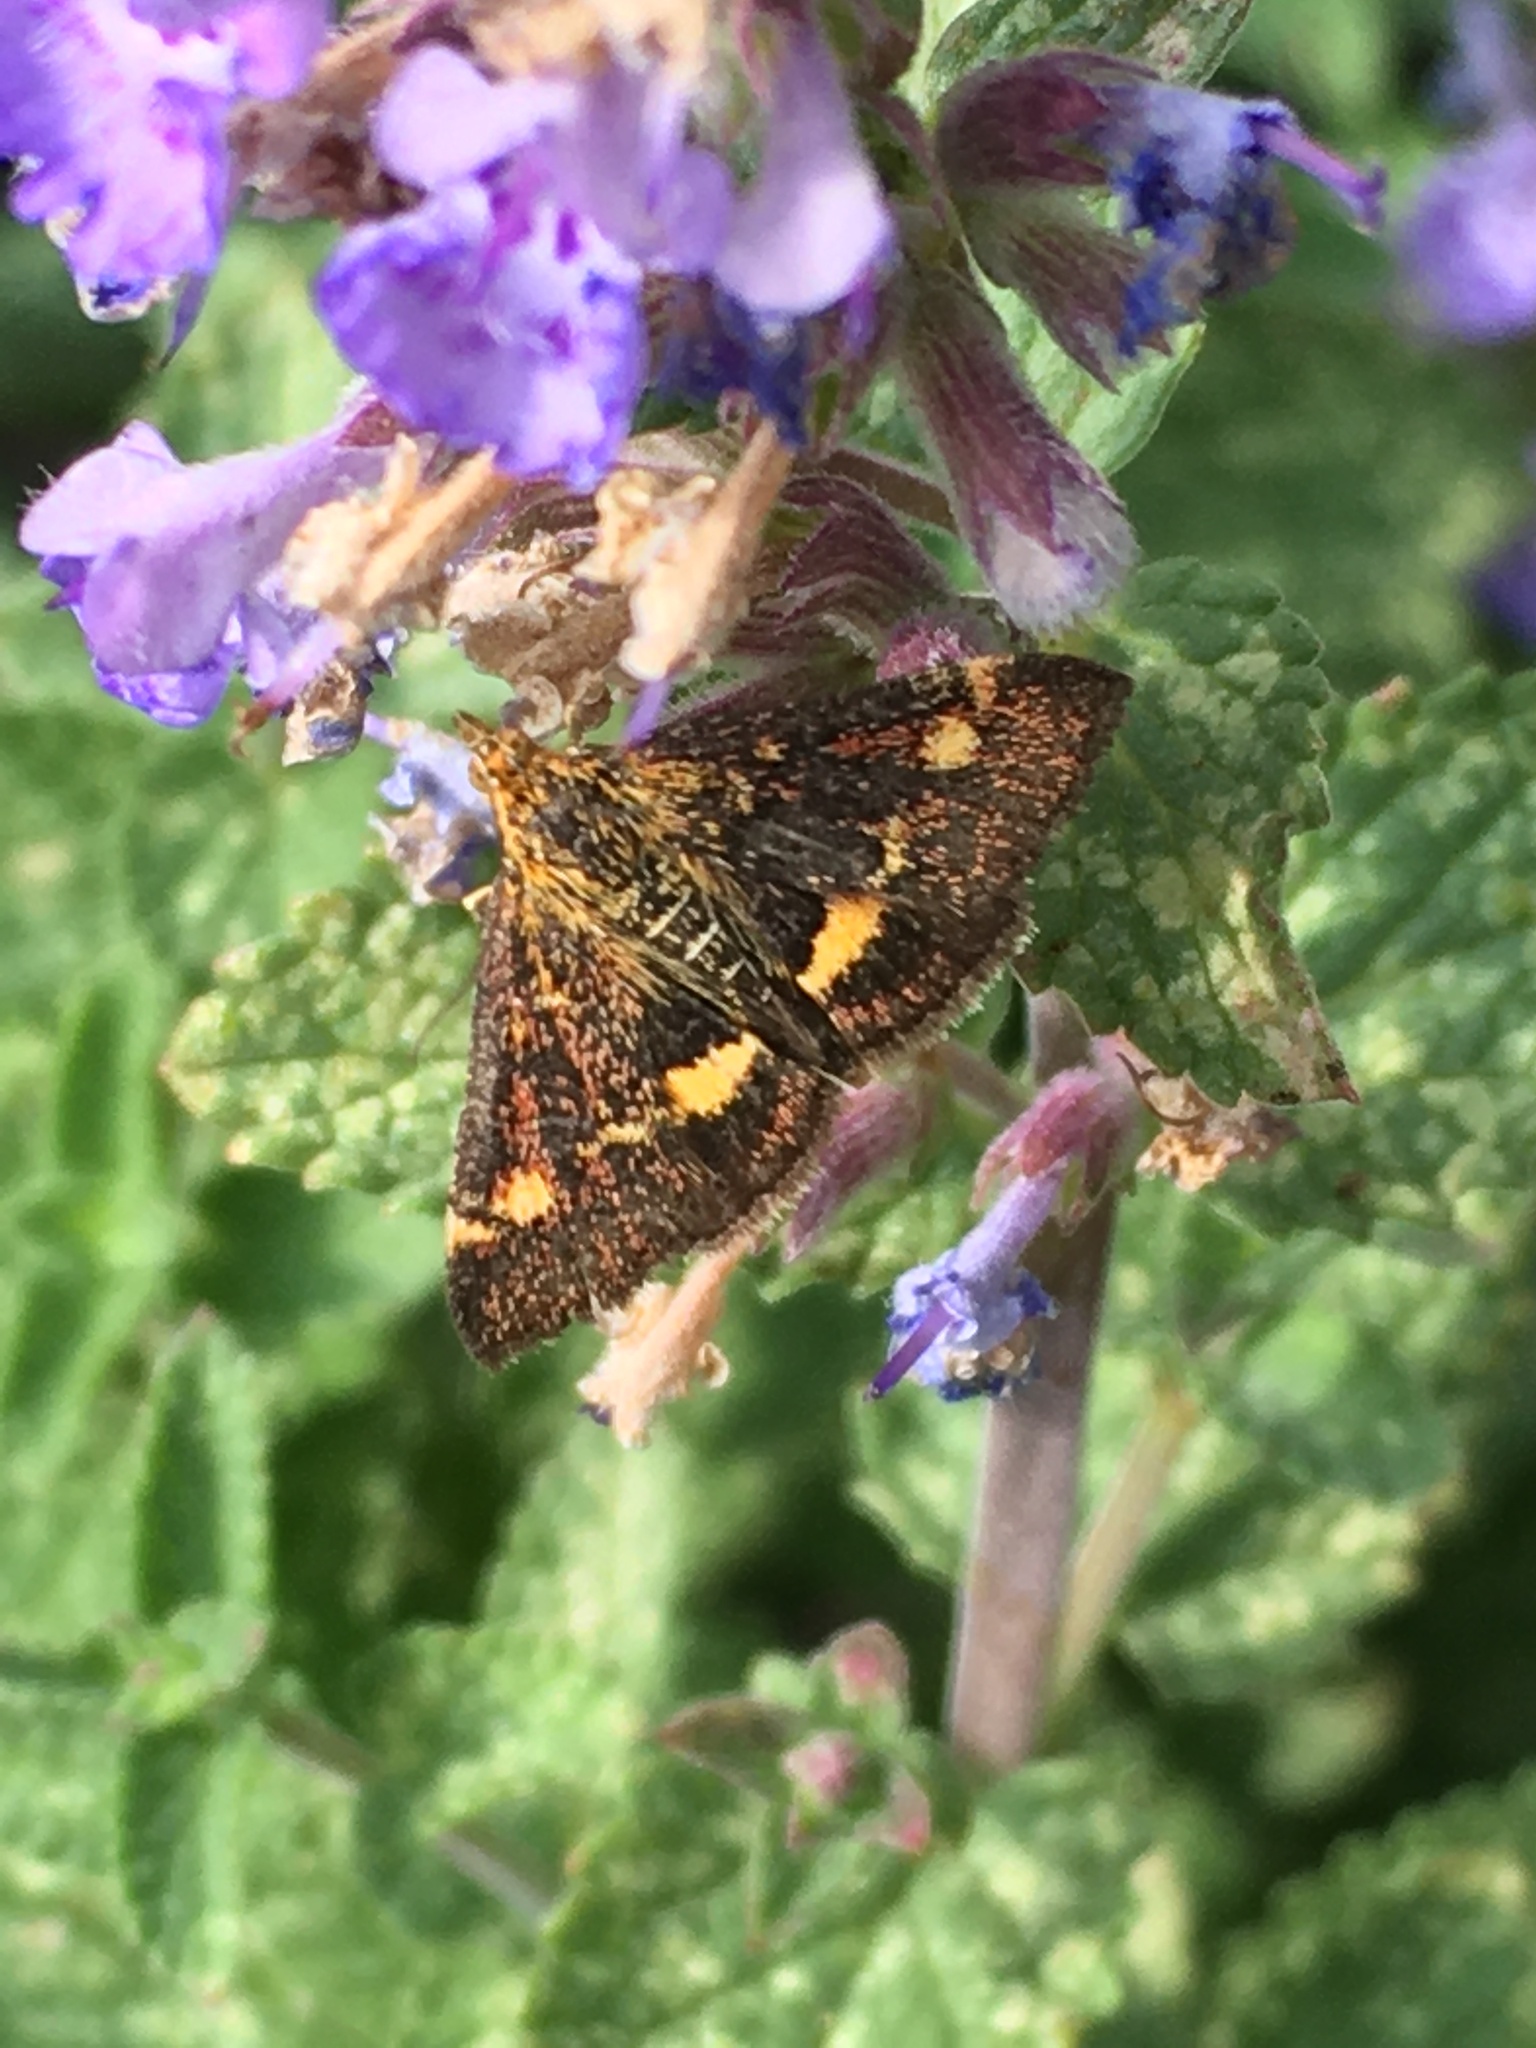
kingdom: Animalia
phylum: Arthropoda
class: Insecta
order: Lepidoptera
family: Crambidae
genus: Pyrausta
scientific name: Pyrausta aurata
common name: Small purple & gold
